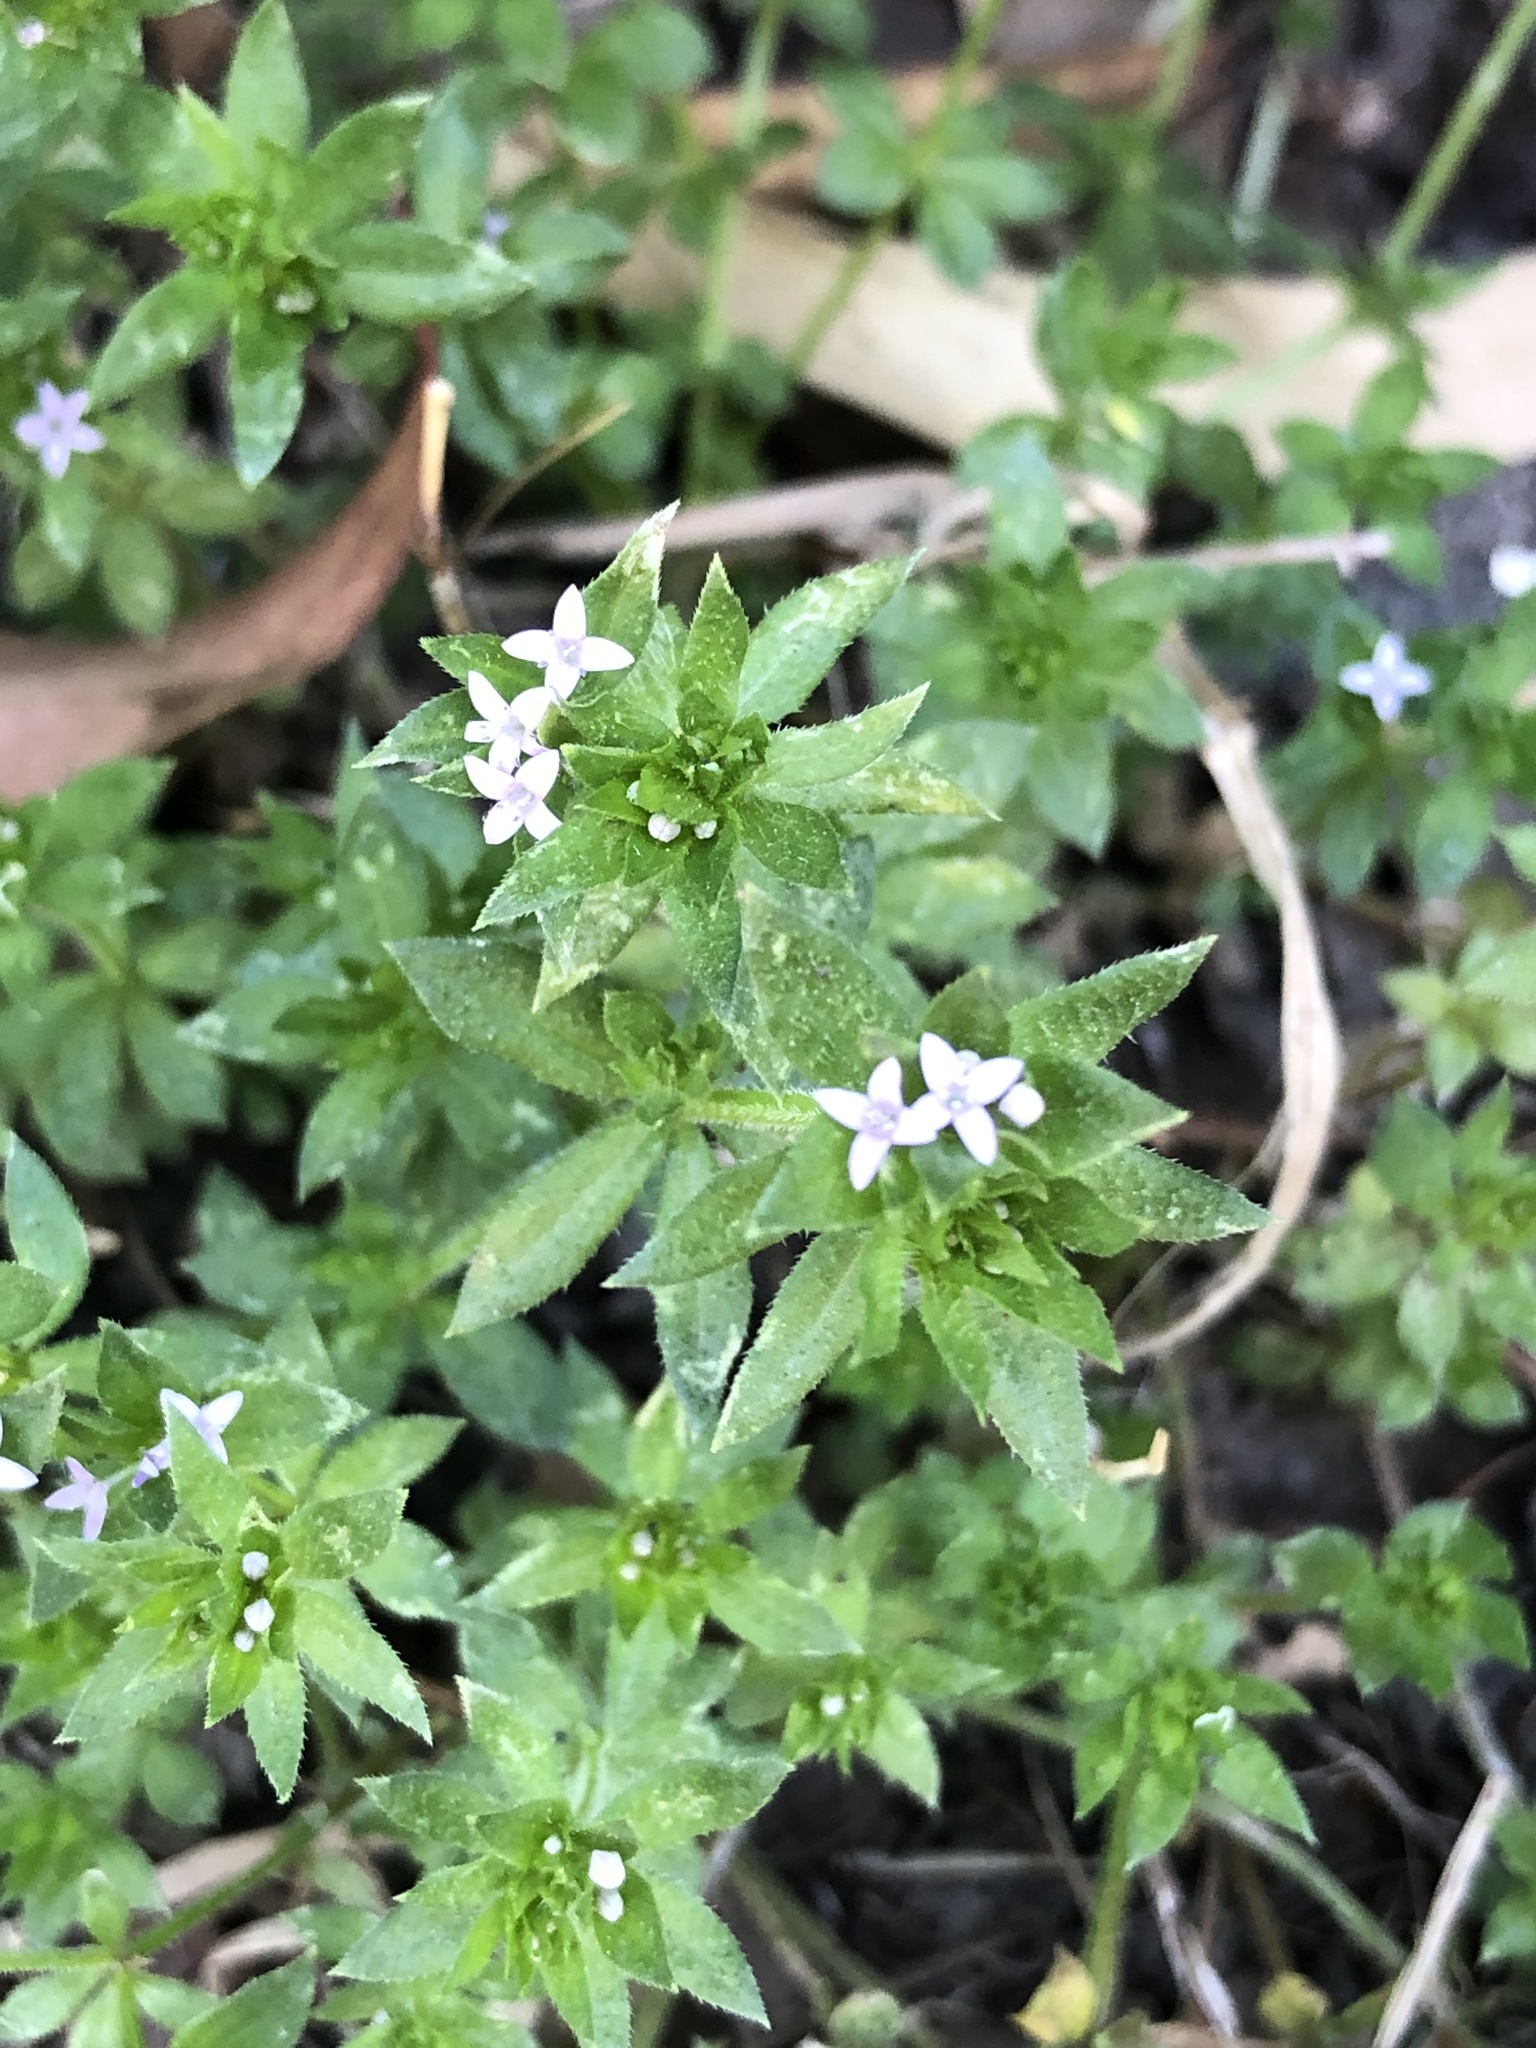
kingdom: Plantae
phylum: Tracheophyta
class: Magnoliopsida
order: Gentianales
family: Rubiaceae
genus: Sherardia
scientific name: Sherardia arvensis
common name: Field madder
